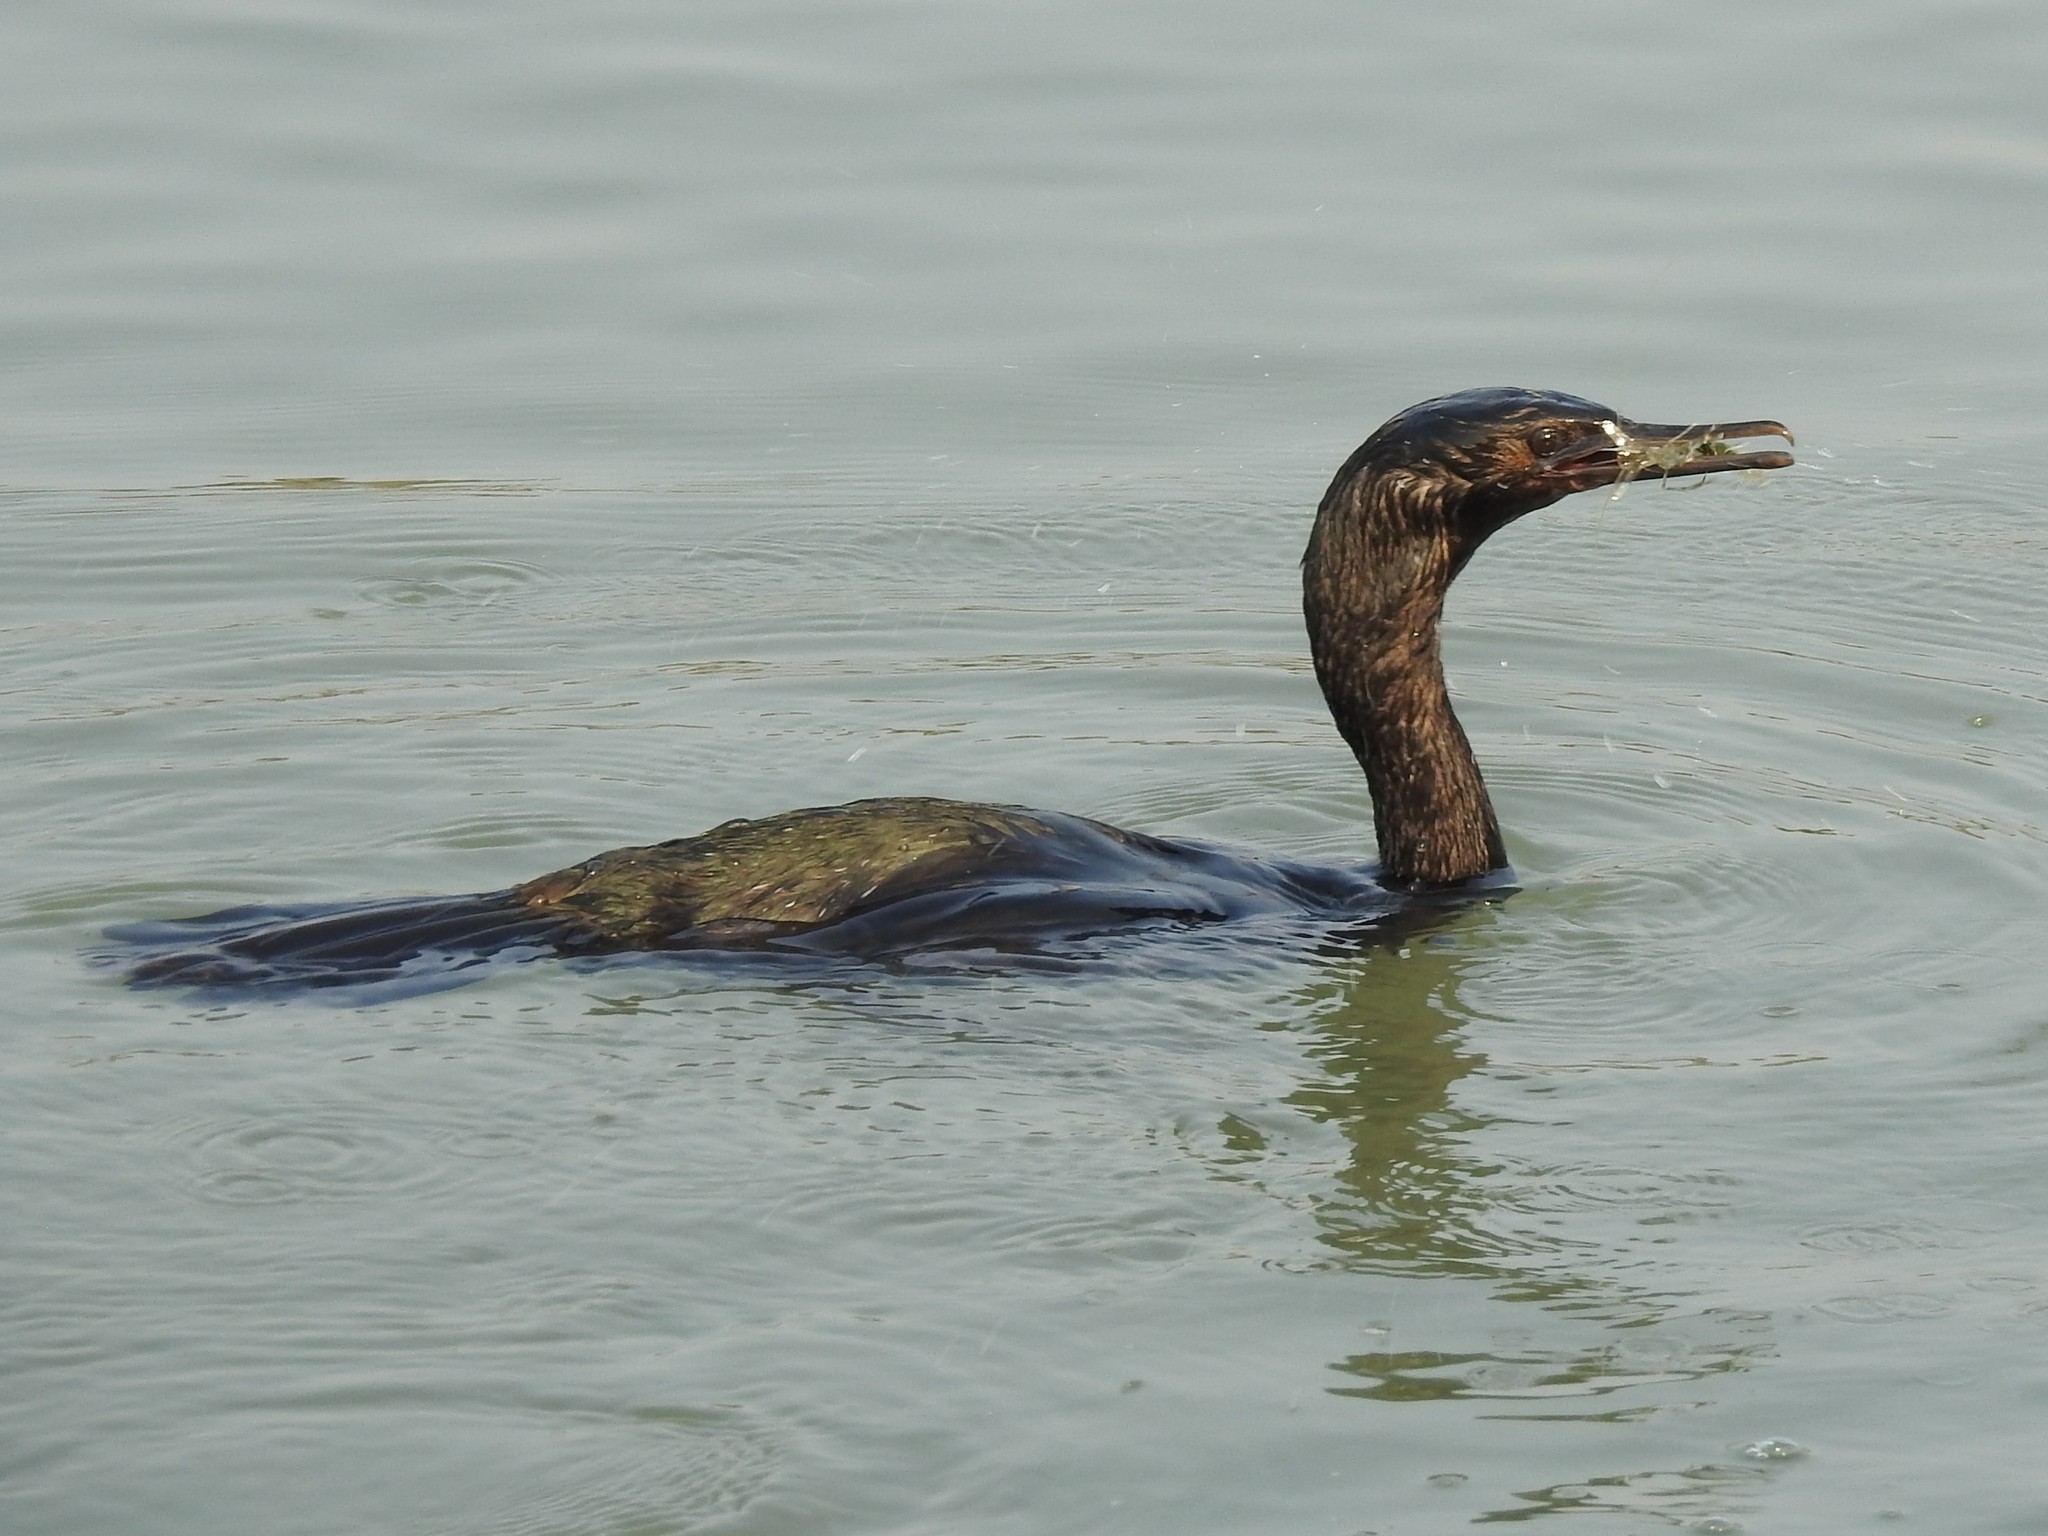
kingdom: Animalia
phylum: Chordata
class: Aves
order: Suliformes
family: Phalacrocoracidae
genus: Phalacrocorax
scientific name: Phalacrocorax pelagicus
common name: Pelagic cormorant
